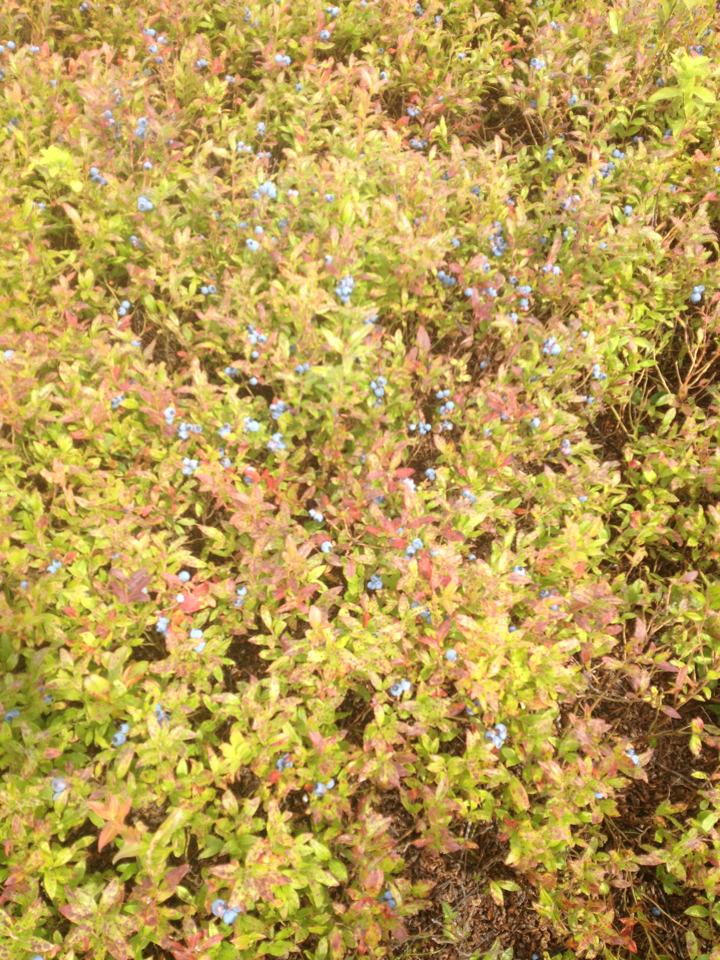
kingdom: Plantae
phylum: Tracheophyta
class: Magnoliopsida
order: Ericales
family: Ericaceae
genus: Vaccinium
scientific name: Vaccinium angustifolium
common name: Early lowbush blueberry
